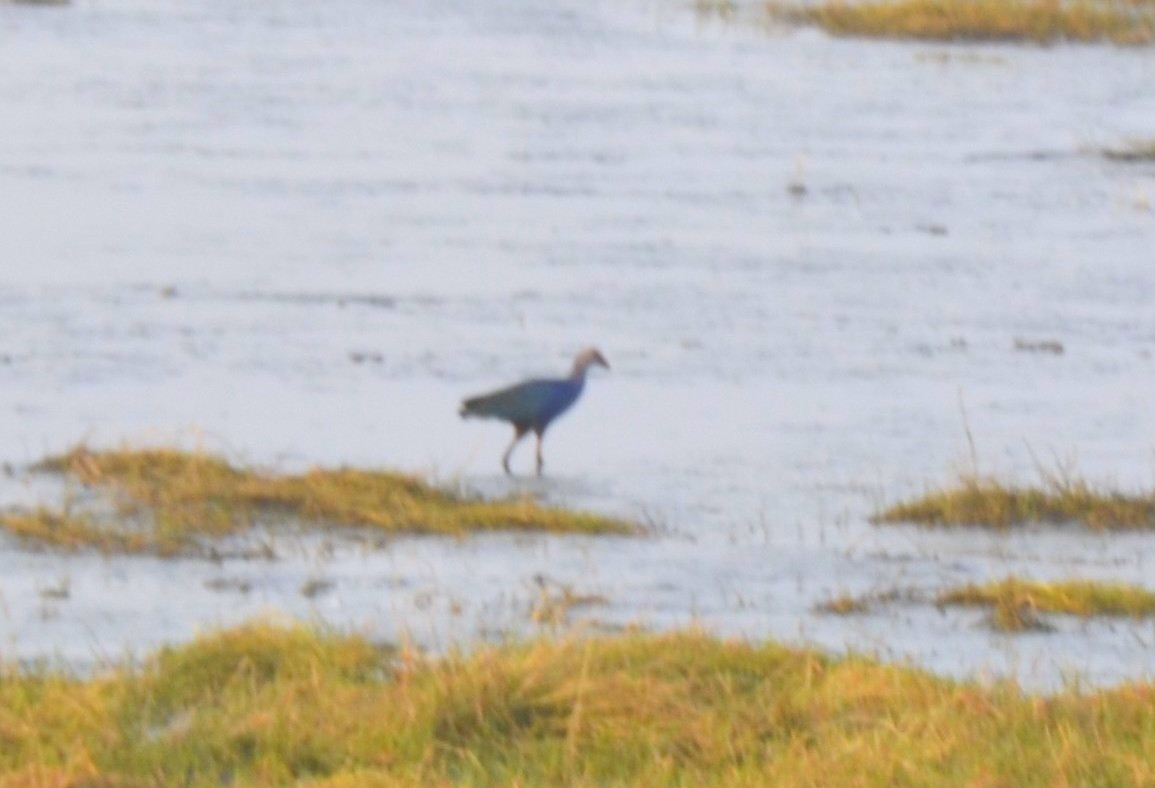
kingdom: Animalia
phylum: Chordata
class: Aves
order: Gruiformes
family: Rallidae
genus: Porphyrio
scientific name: Porphyrio porphyrio
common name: Purple swamphen
